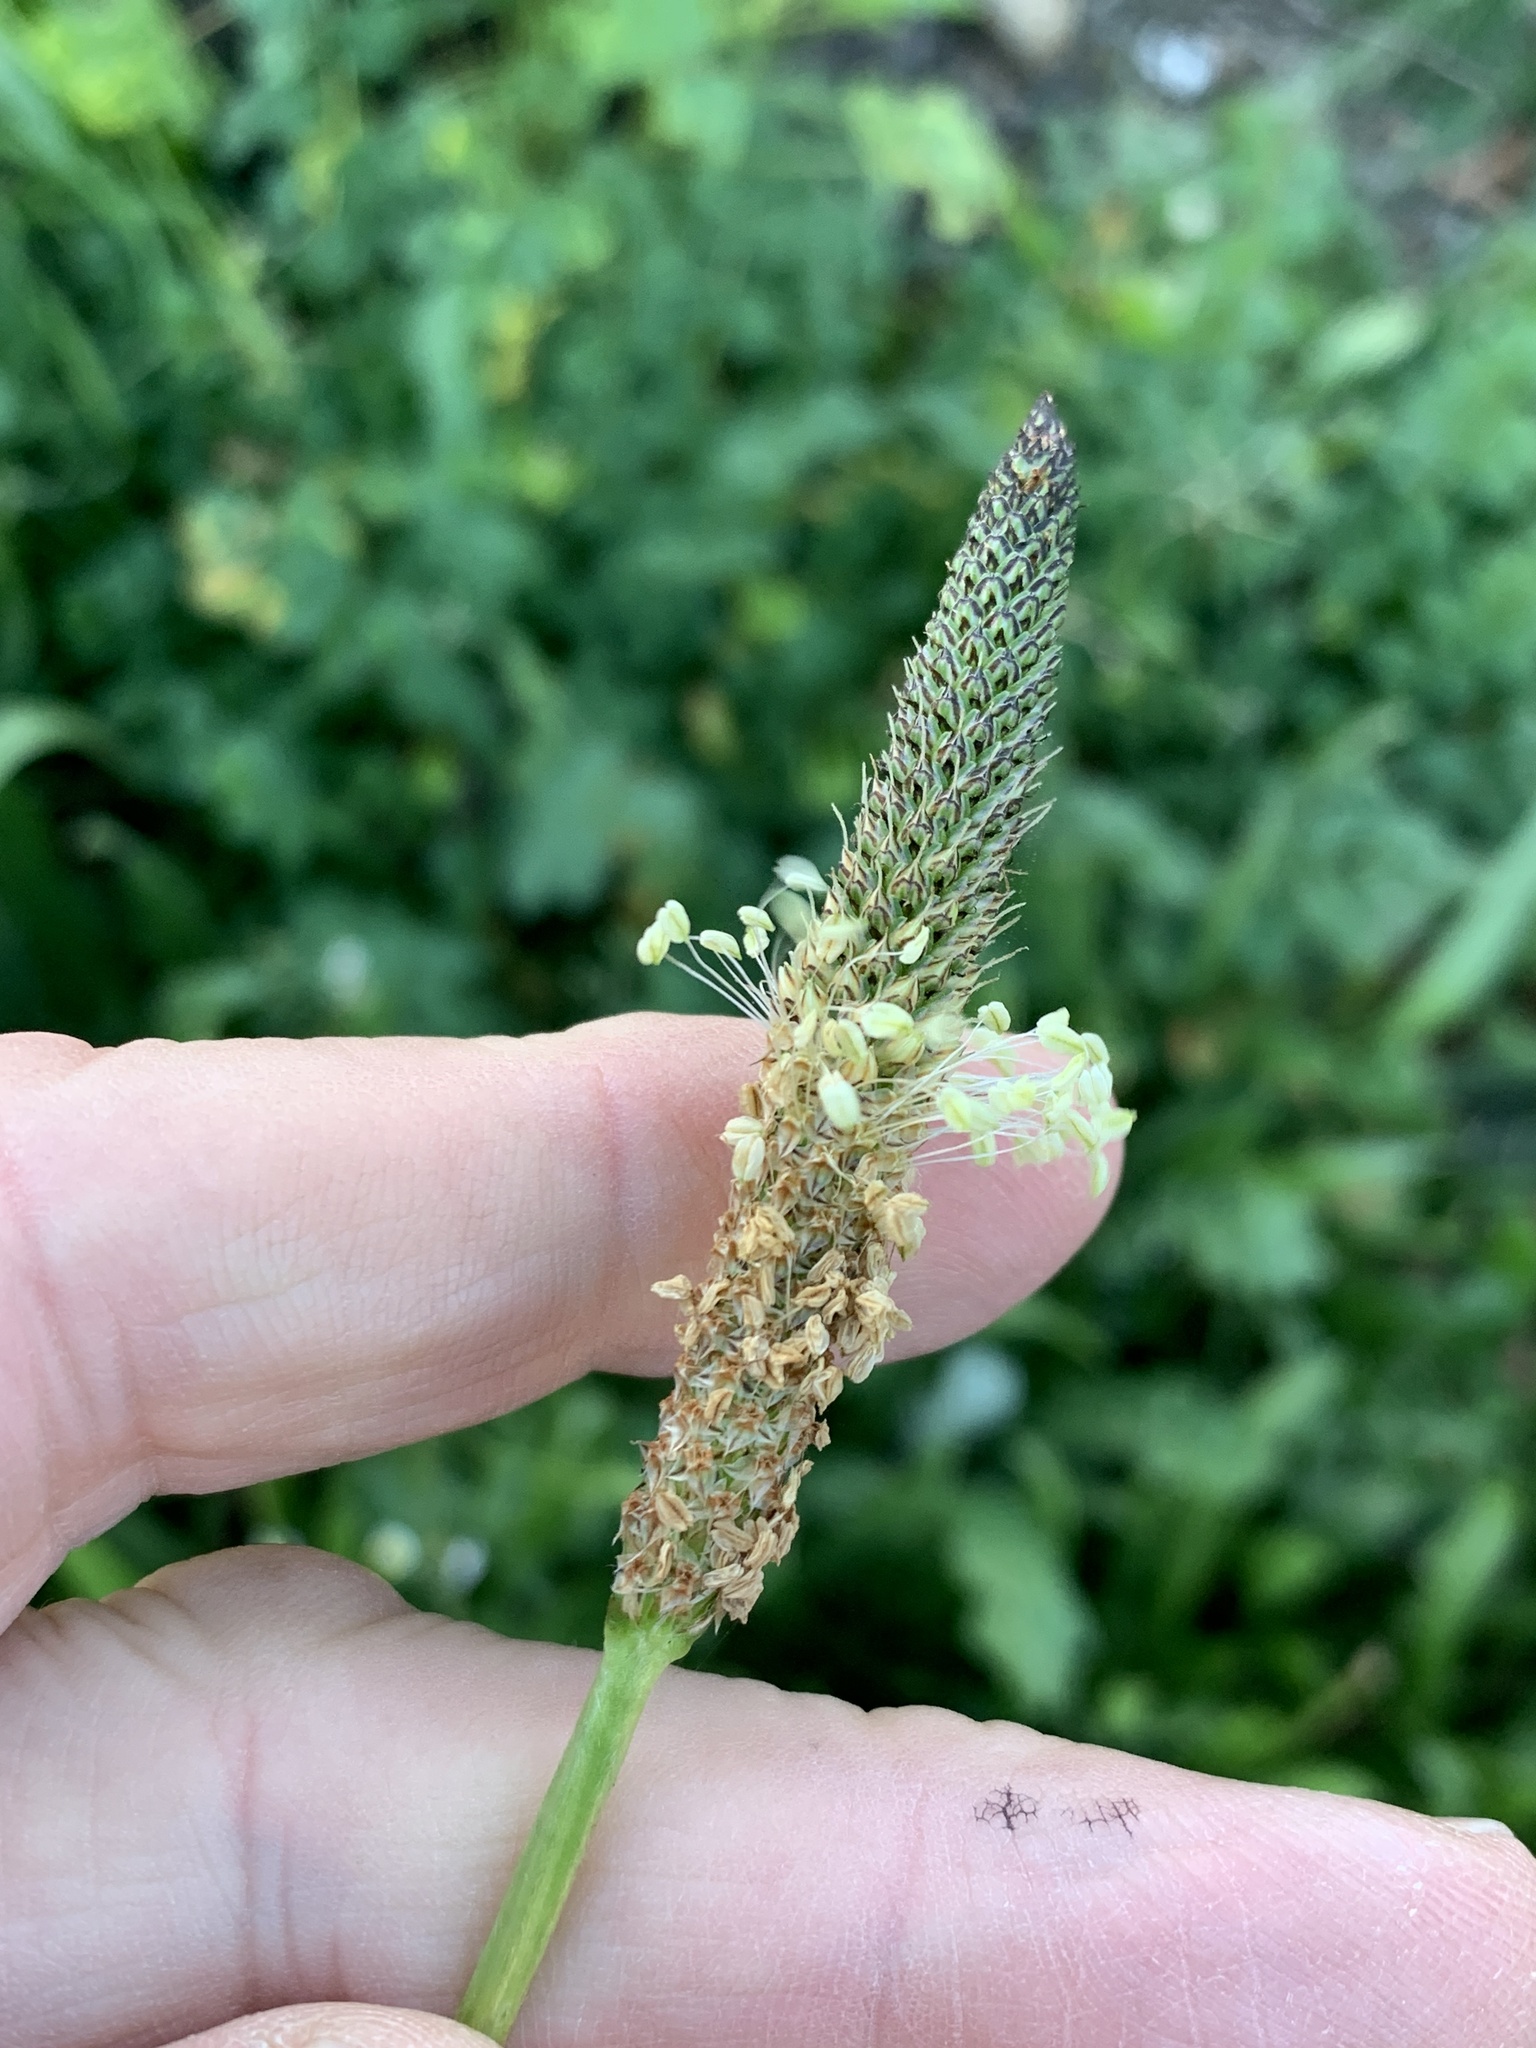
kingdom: Plantae
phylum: Tracheophyta
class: Magnoliopsida
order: Lamiales
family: Plantaginaceae
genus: Plantago
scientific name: Plantago lanceolata
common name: Ribwort plantain
